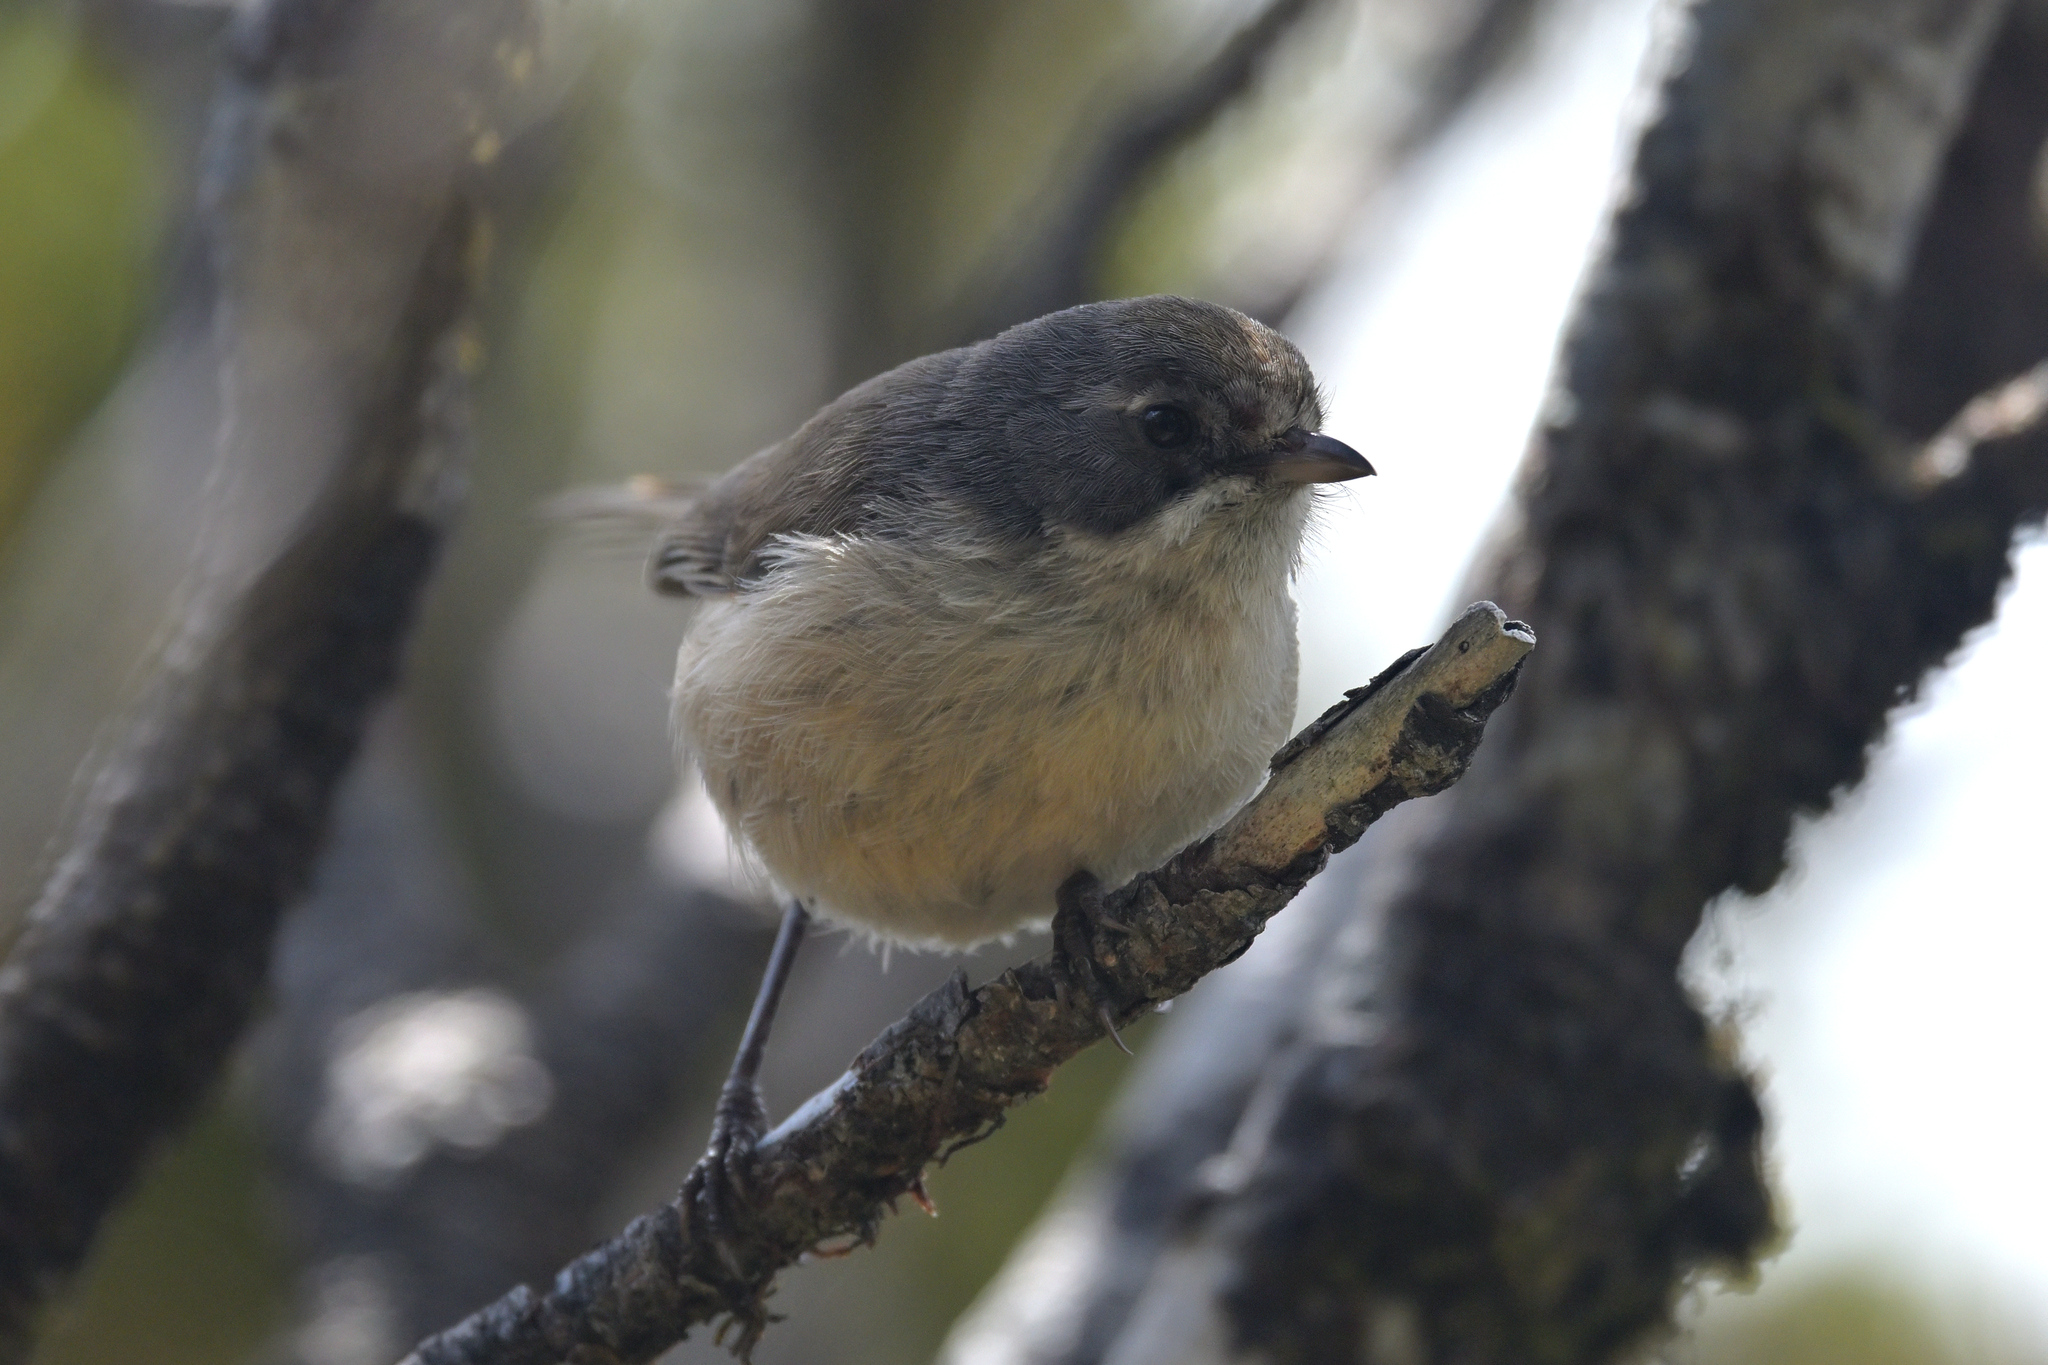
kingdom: Animalia
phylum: Chordata
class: Aves
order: Passeriformes
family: Acanthizidae
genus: Finschia
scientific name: Finschia novaeseelandiae
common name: Pipipi
